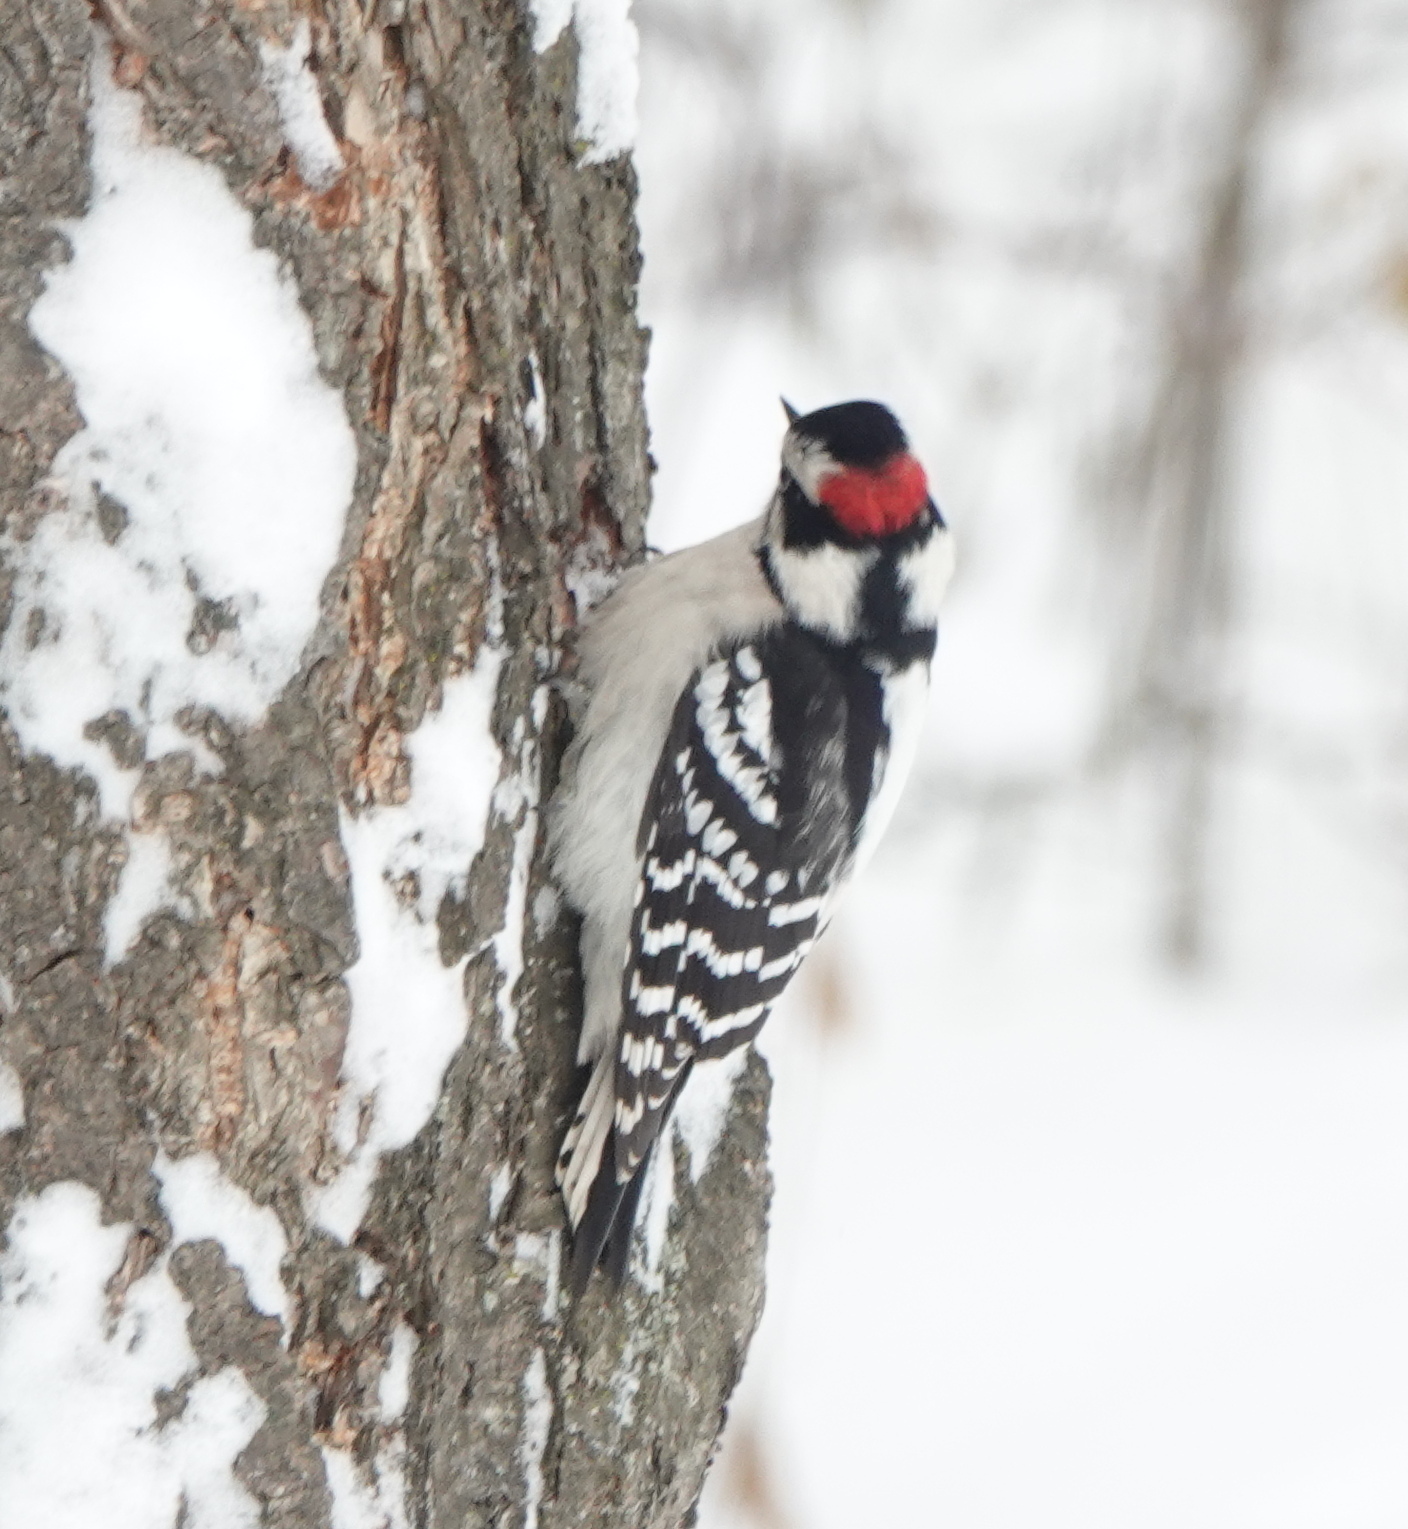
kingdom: Animalia
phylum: Chordata
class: Aves
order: Piciformes
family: Picidae
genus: Dryobates
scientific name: Dryobates pubescens
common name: Downy woodpecker
